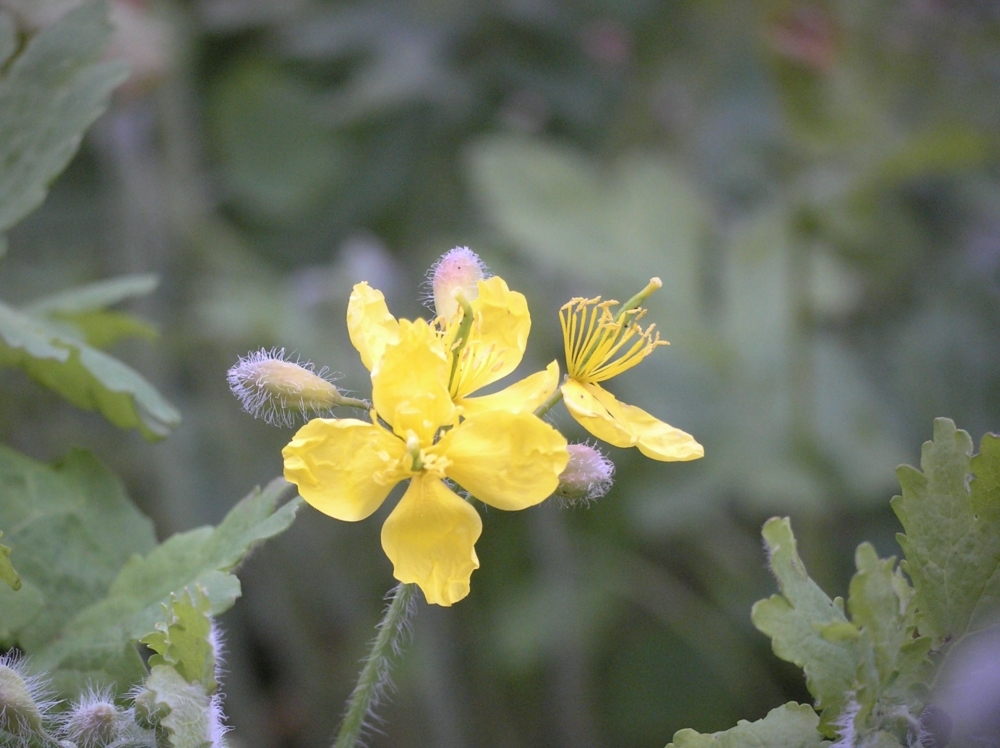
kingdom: Plantae
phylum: Tracheophyta
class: Magnoliopsida
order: Ranunculales
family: Papaveraceae
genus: Chelidonium
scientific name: Chelidonium majus
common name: Greater celandine
